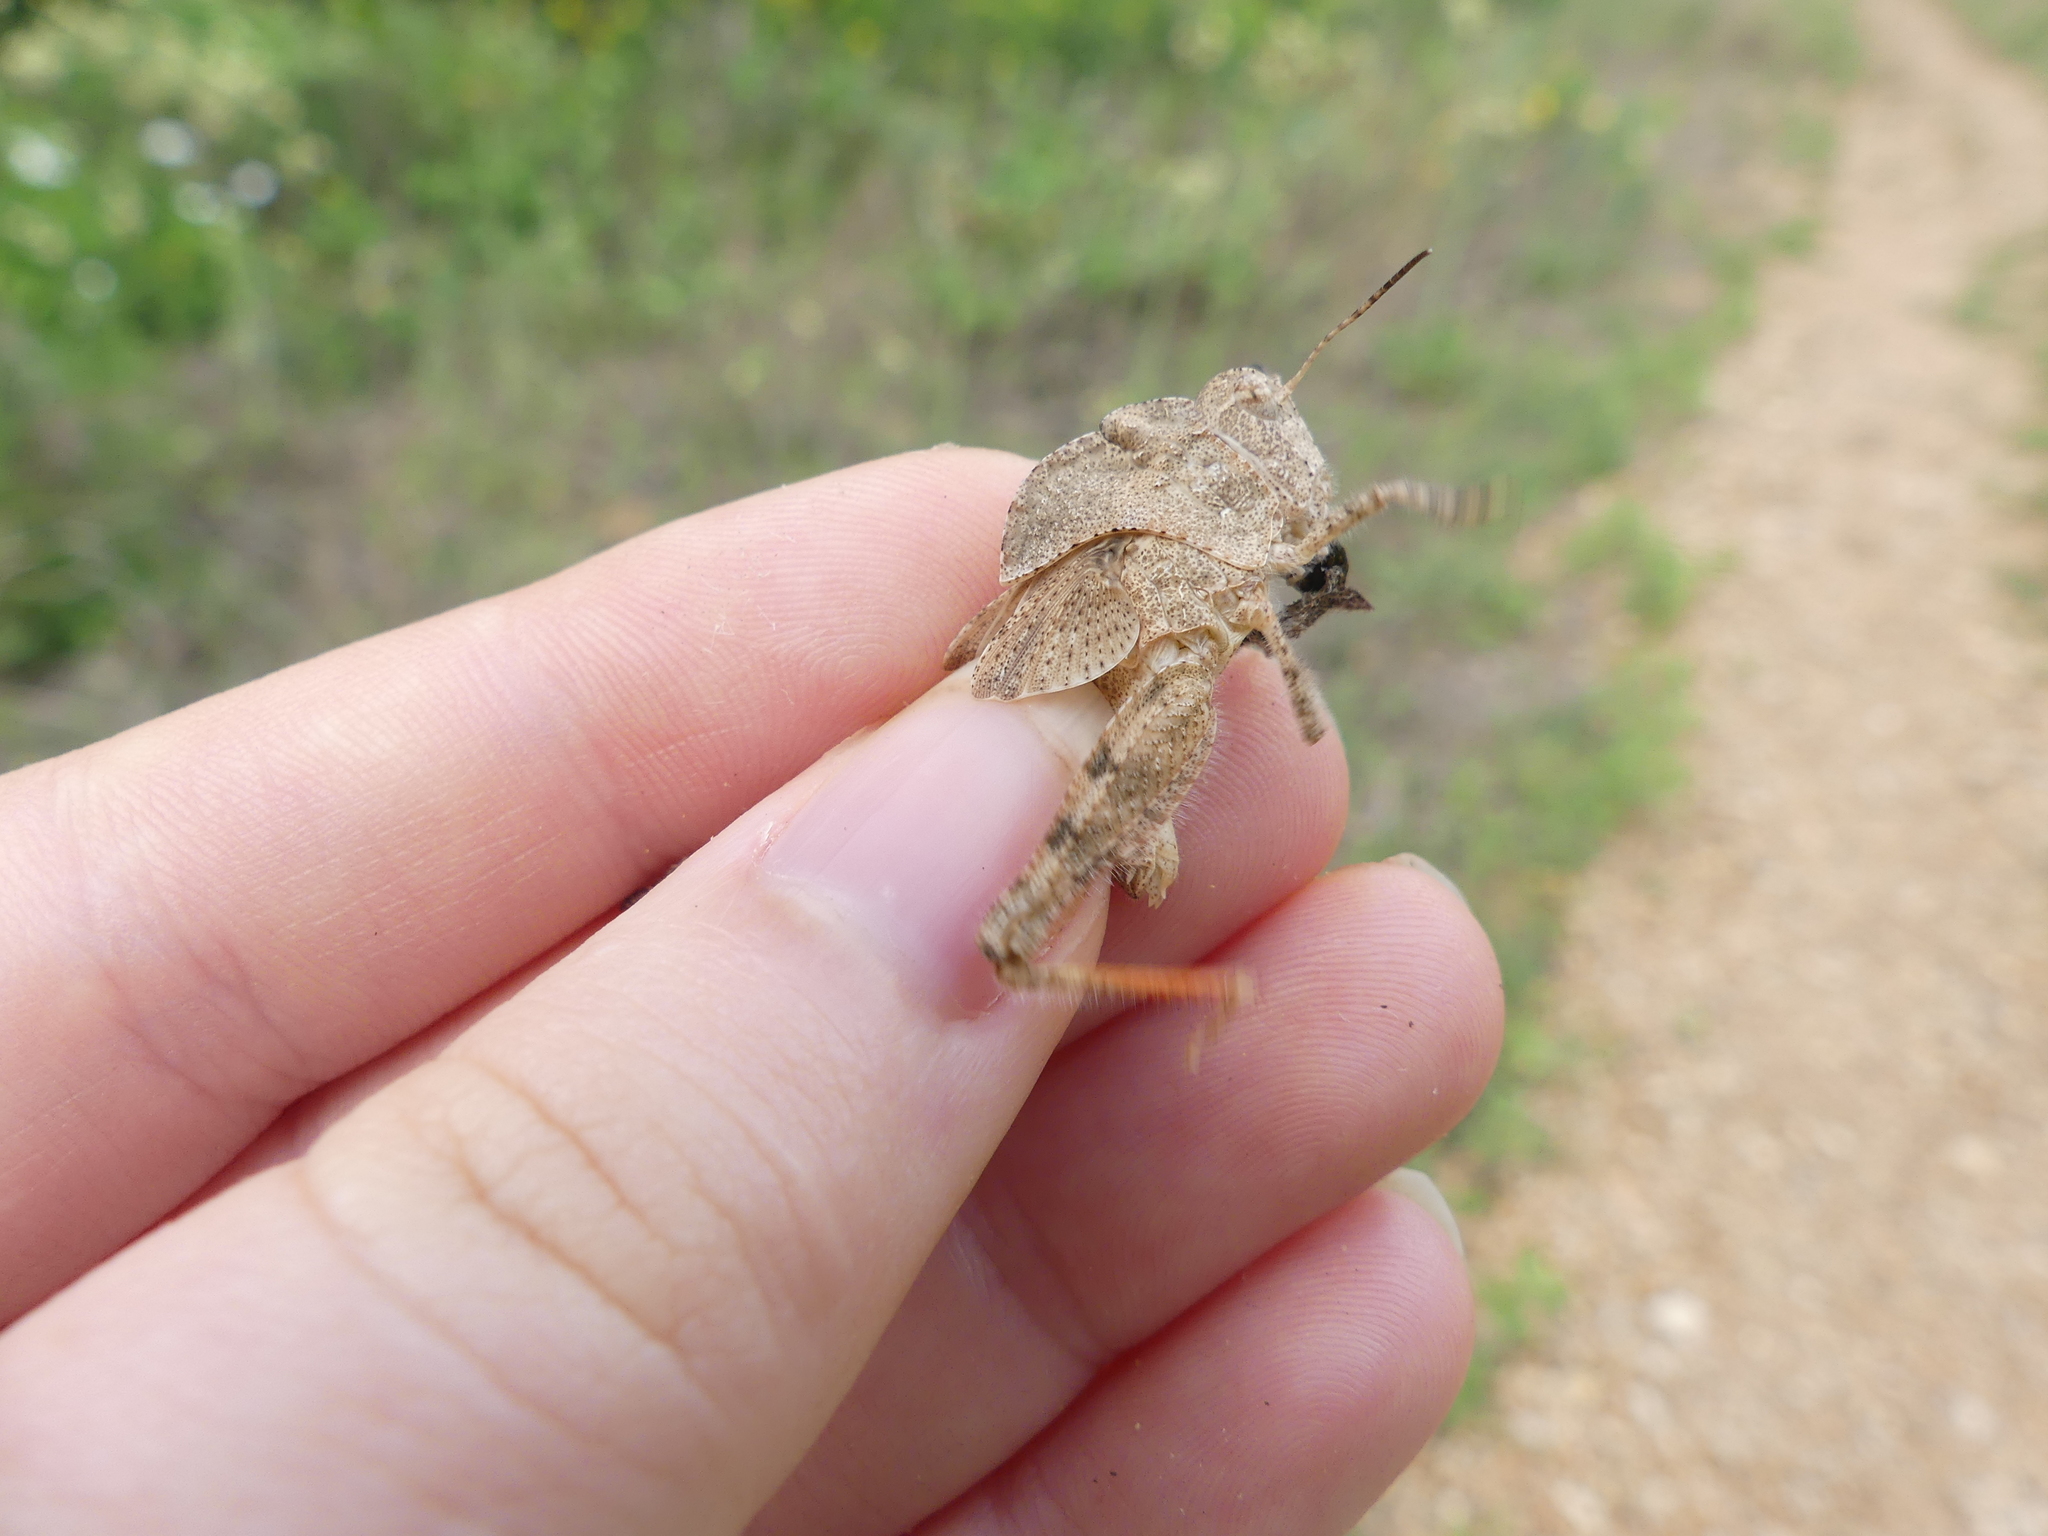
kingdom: Animalia
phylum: Arthropoda
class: Insecta
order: Orthoptera
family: Acrididae
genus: Spharagemon
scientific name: Spharagemon cristatum
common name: Ridgeback sand grasshopper
